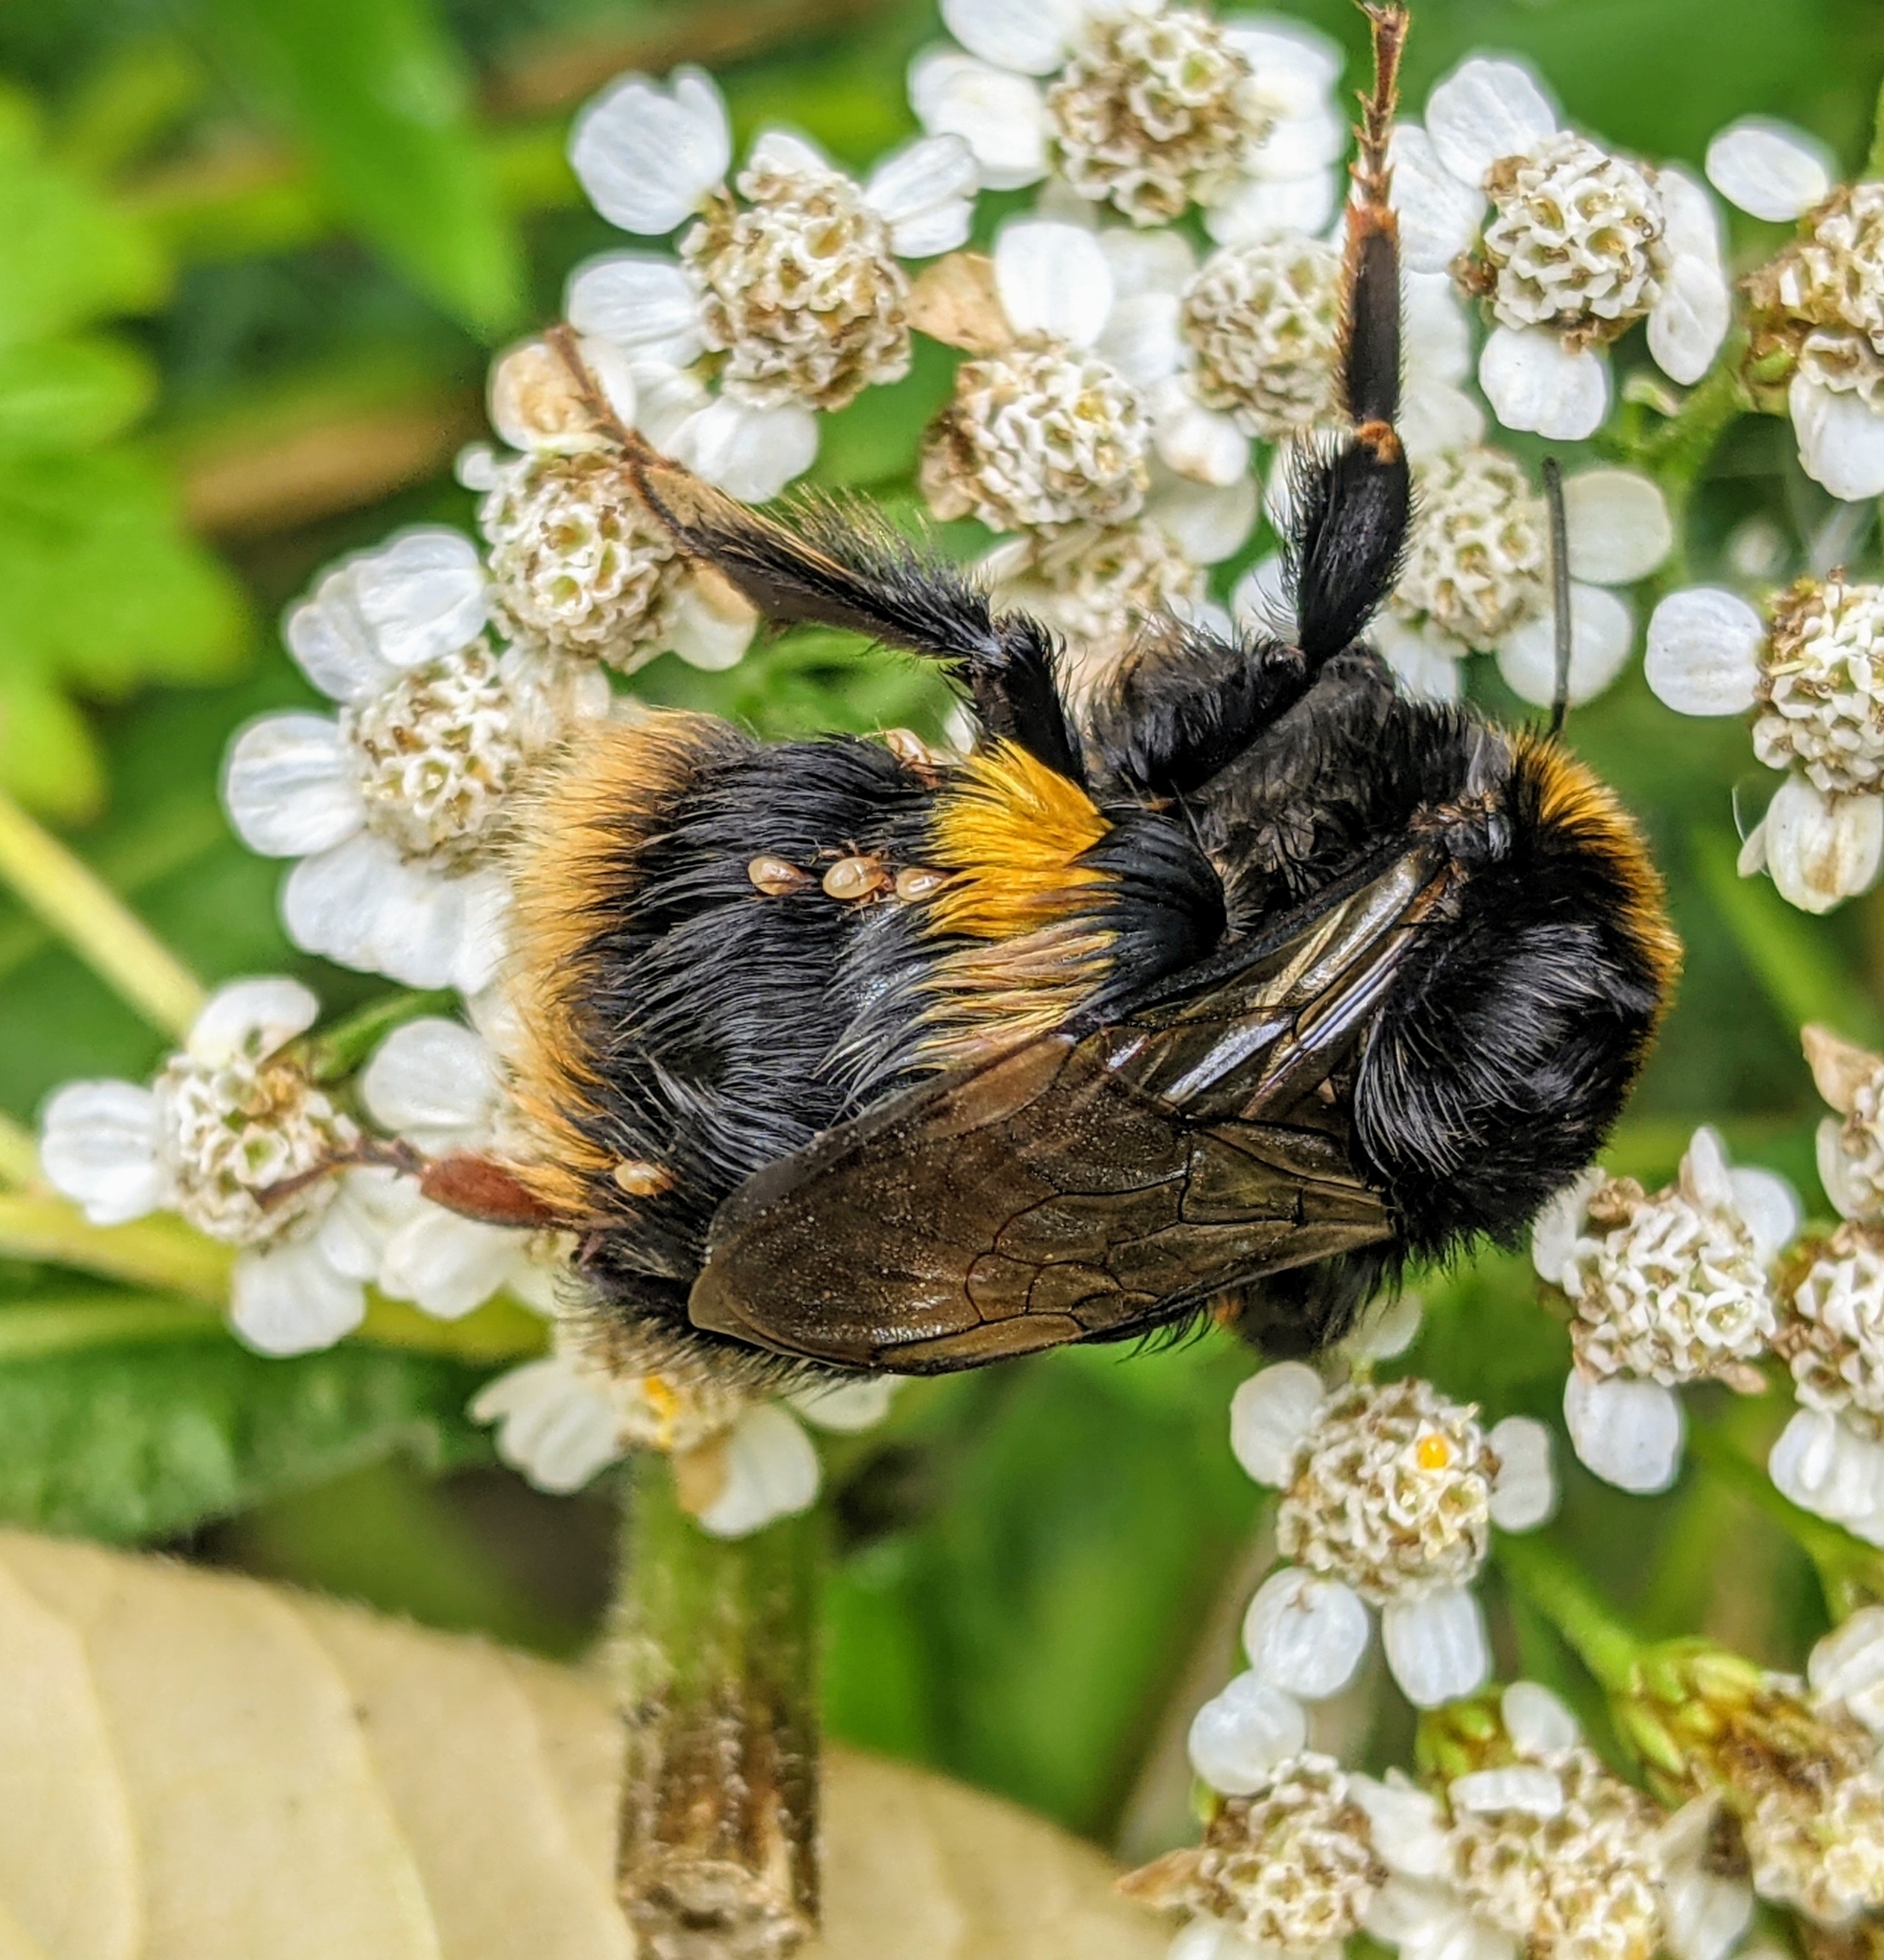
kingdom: Animalia
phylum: Arthropoda
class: Insecta
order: Hymenoptera
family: Apidae
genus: Bombus
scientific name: Bombus terrestris
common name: Buff-tailed bumblebee
